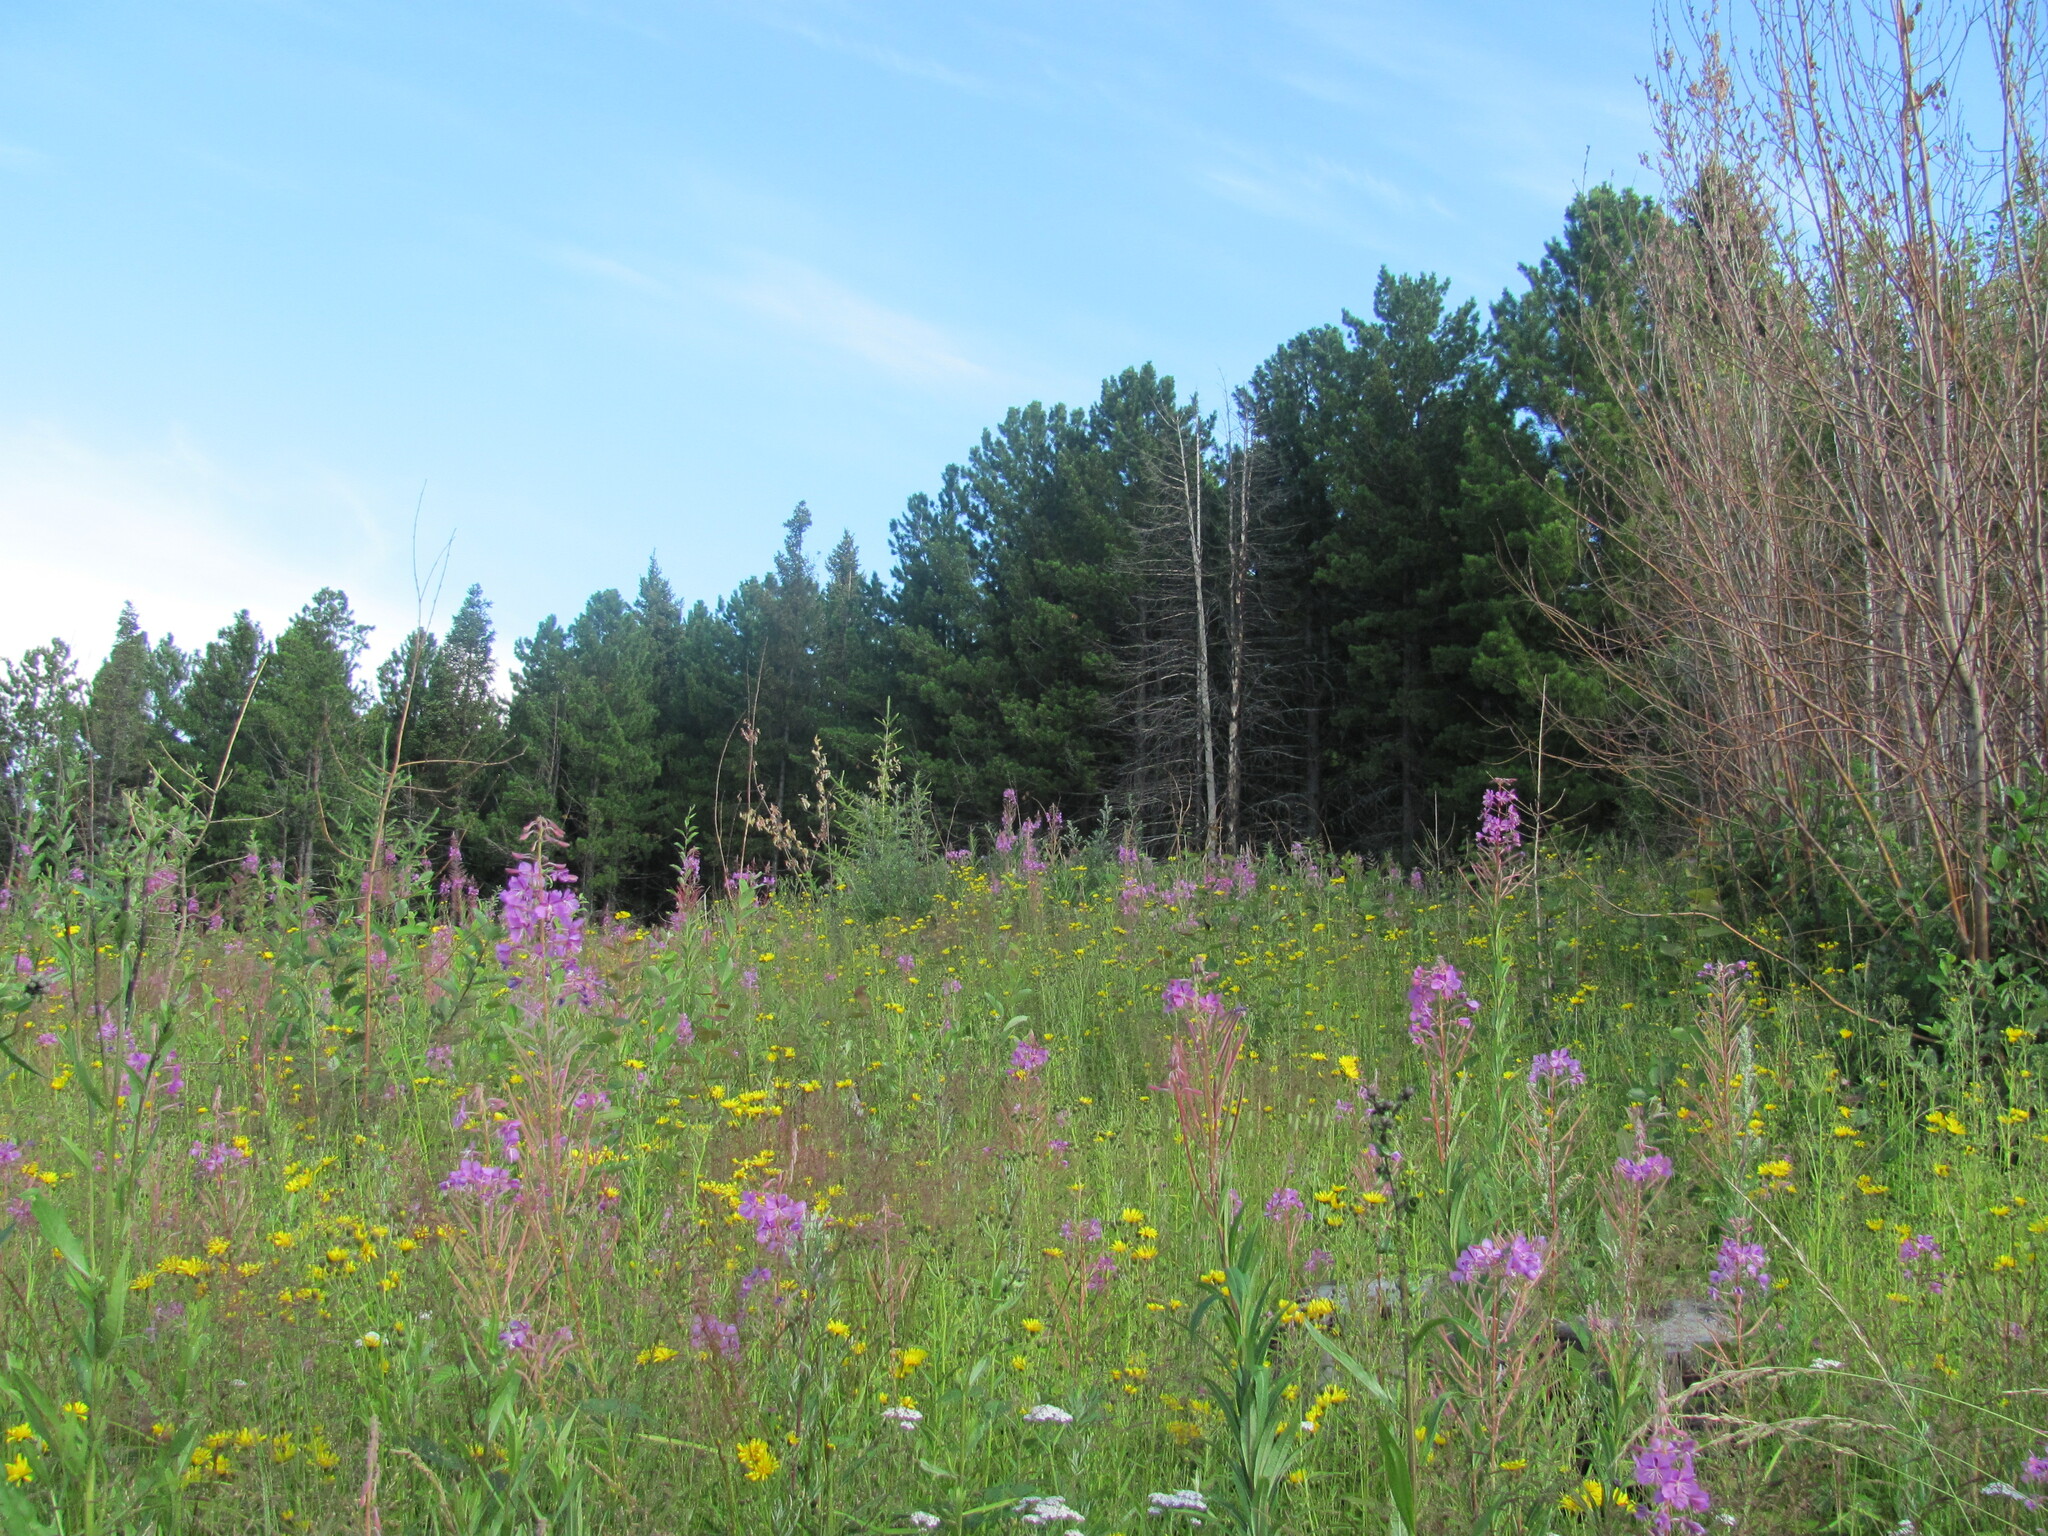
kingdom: Plantae
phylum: Tracheophyta
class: Magnoliopsida
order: Myrtales
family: Onagraceae
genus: Chamaenerion
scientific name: Chamaenerion angustifolium
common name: Fireweed
